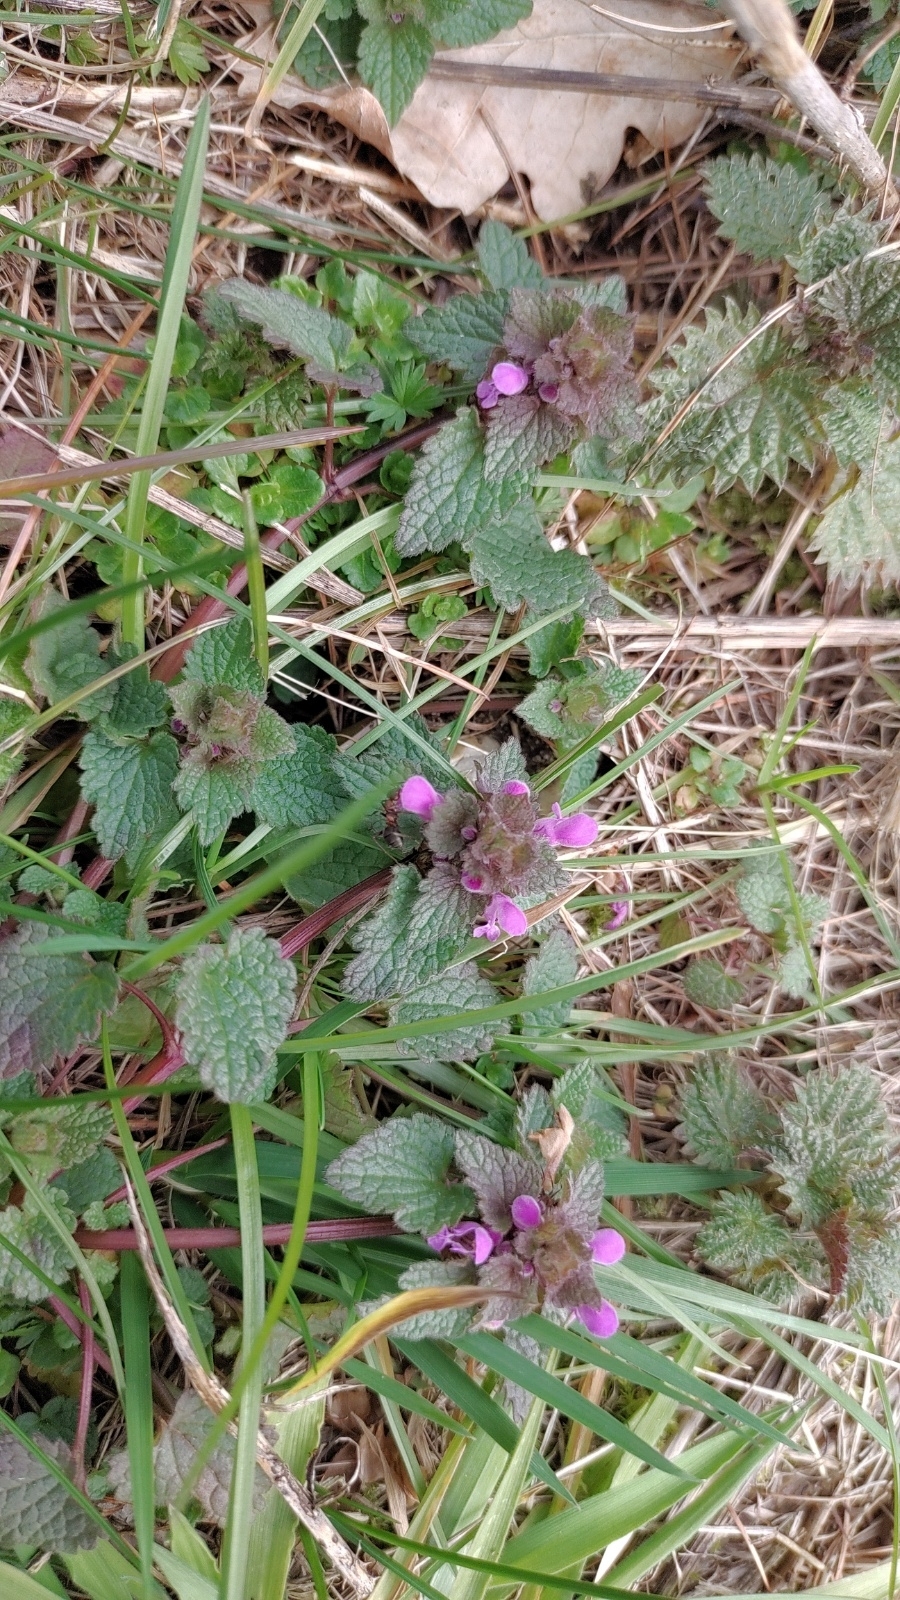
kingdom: Plantae
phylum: Tracheophyta
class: Magnoliopsida
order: Lamiales
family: Lamiaceae
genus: Lamium
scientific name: Lamium purpureum
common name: Red dead-nettle
